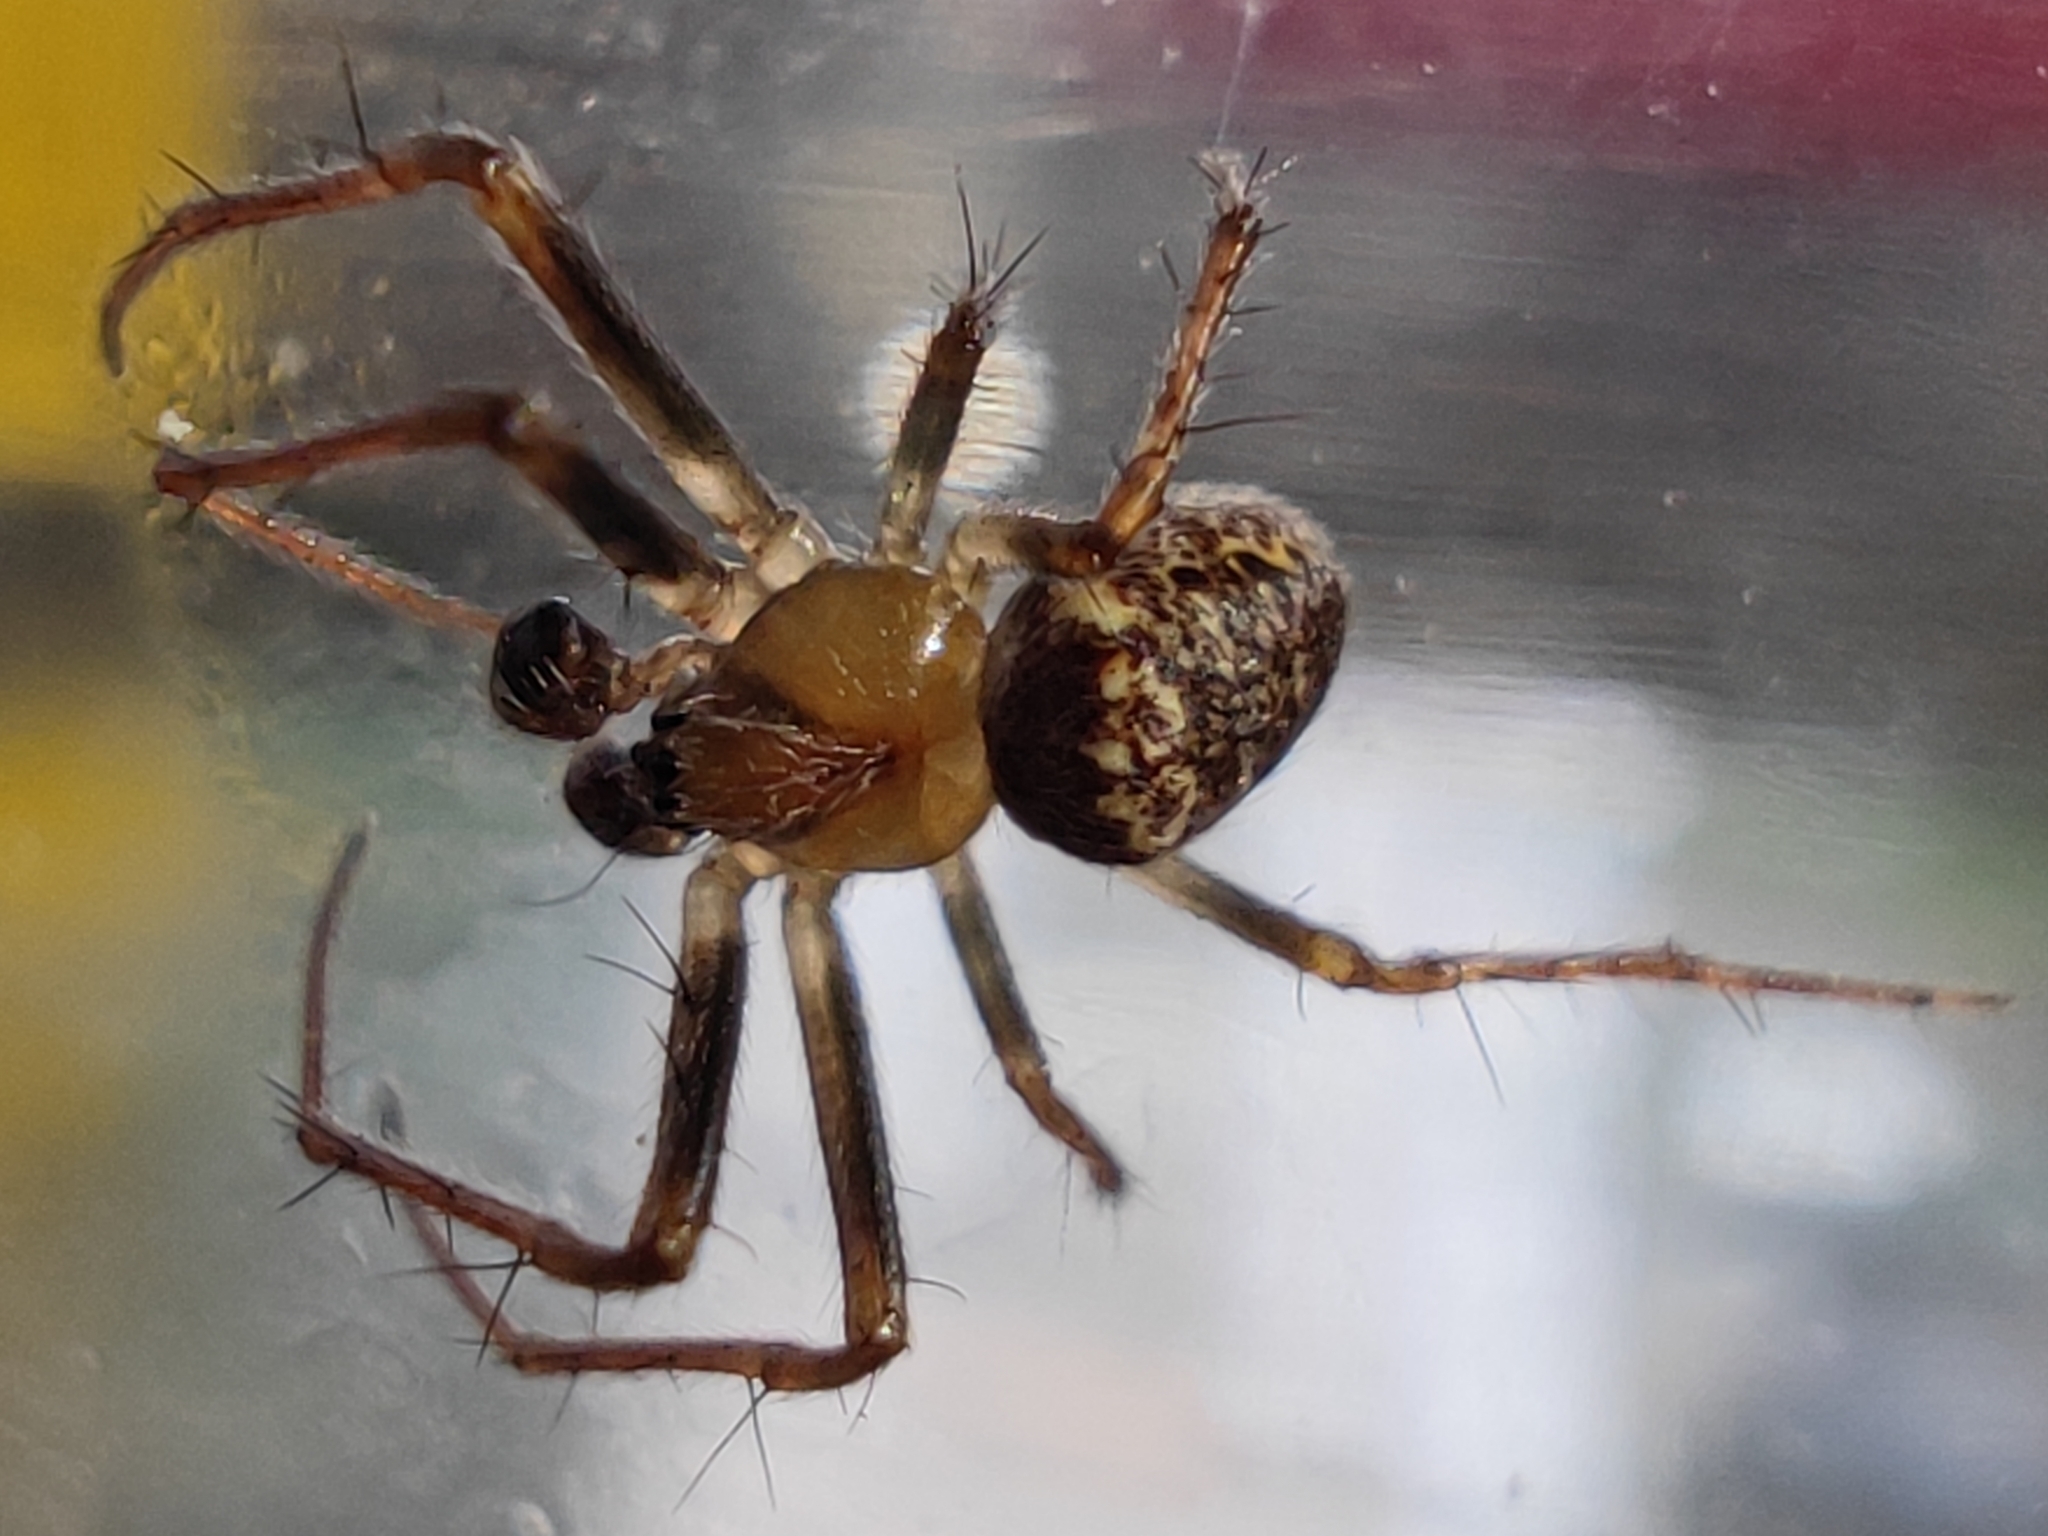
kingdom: Animalia
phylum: Arthropoda
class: Arachnida
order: Araneae
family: Araneidae
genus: Zilla
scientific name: Zilla diodia
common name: Zilla diodia
